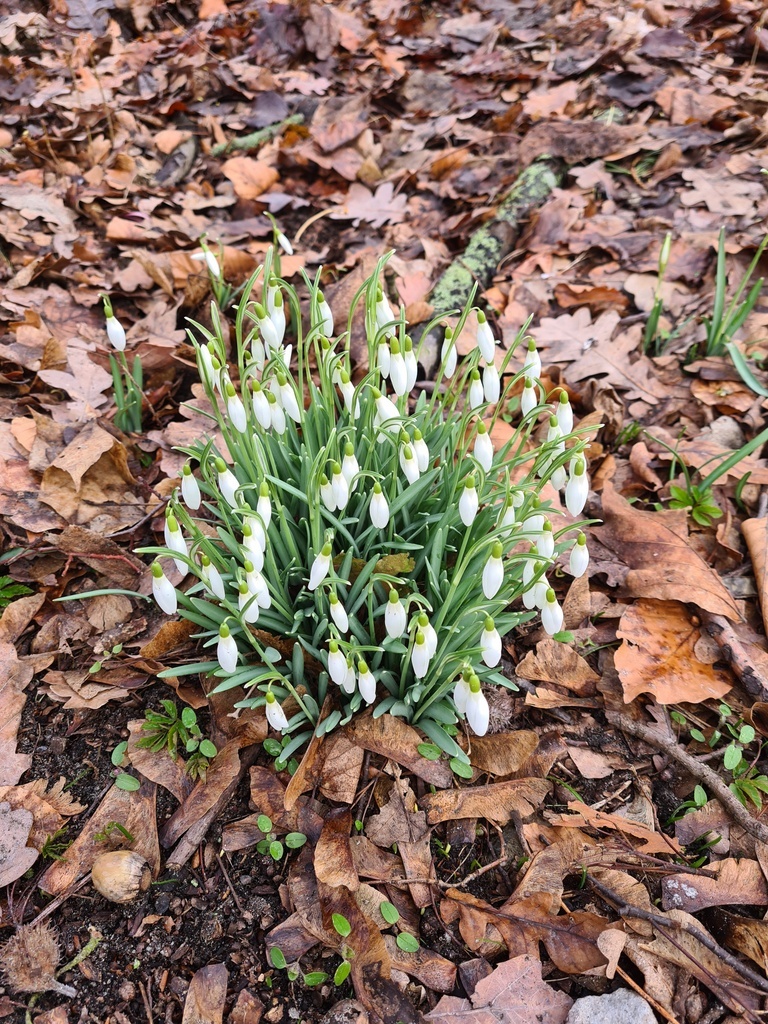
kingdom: Plantae
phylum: Tracheophyta
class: Liliopsida
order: Asparagales
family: Amaryllidaceae
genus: Galanthus
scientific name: Galanthus nivalis
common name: Snowdrop
